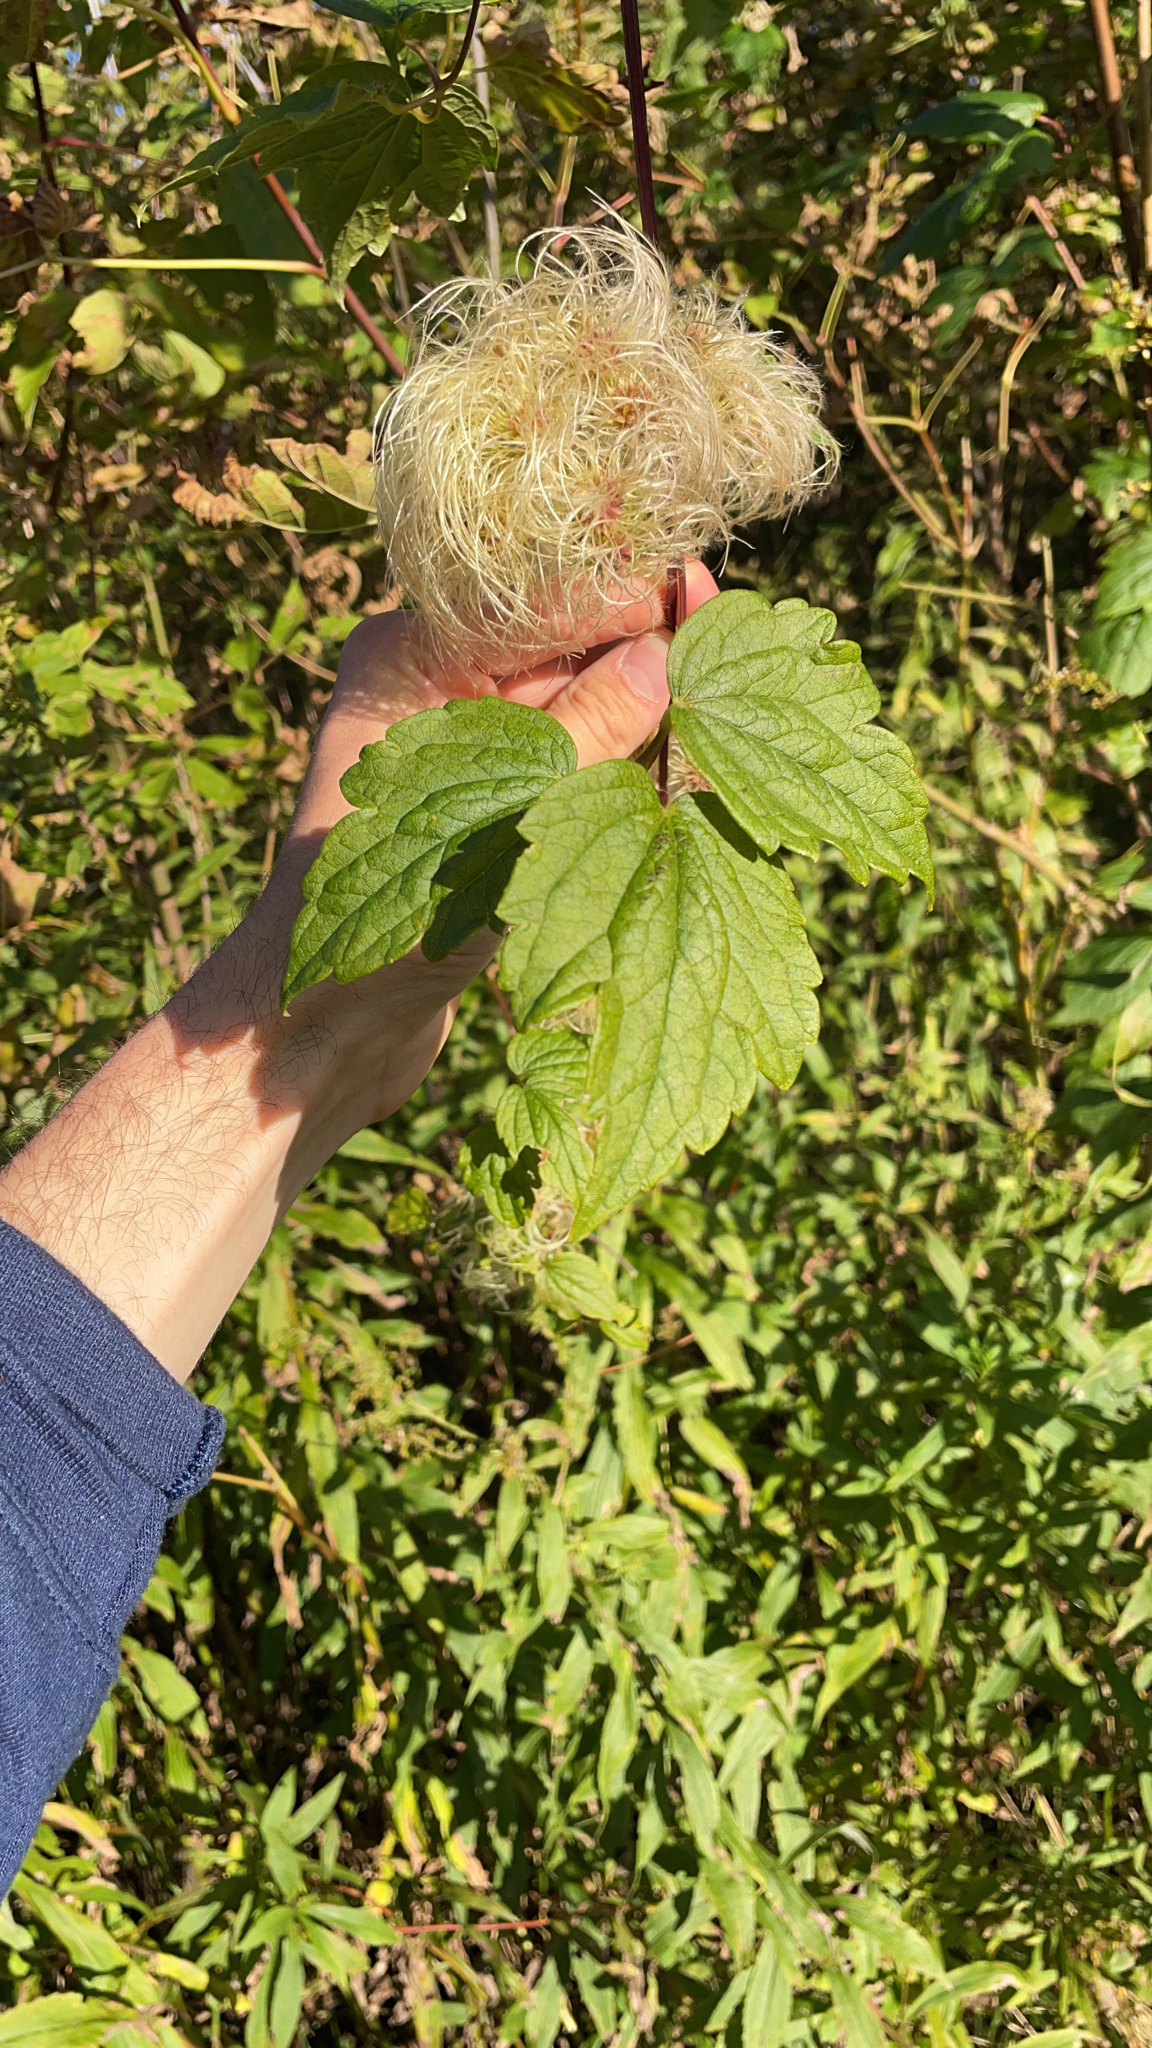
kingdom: Plantae
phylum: Tracheophyta
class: Magnoliopsida
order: Ranunculales
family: Ranunculaceae
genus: Clematis
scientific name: Clematis virginiana
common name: Virgin's-bower
